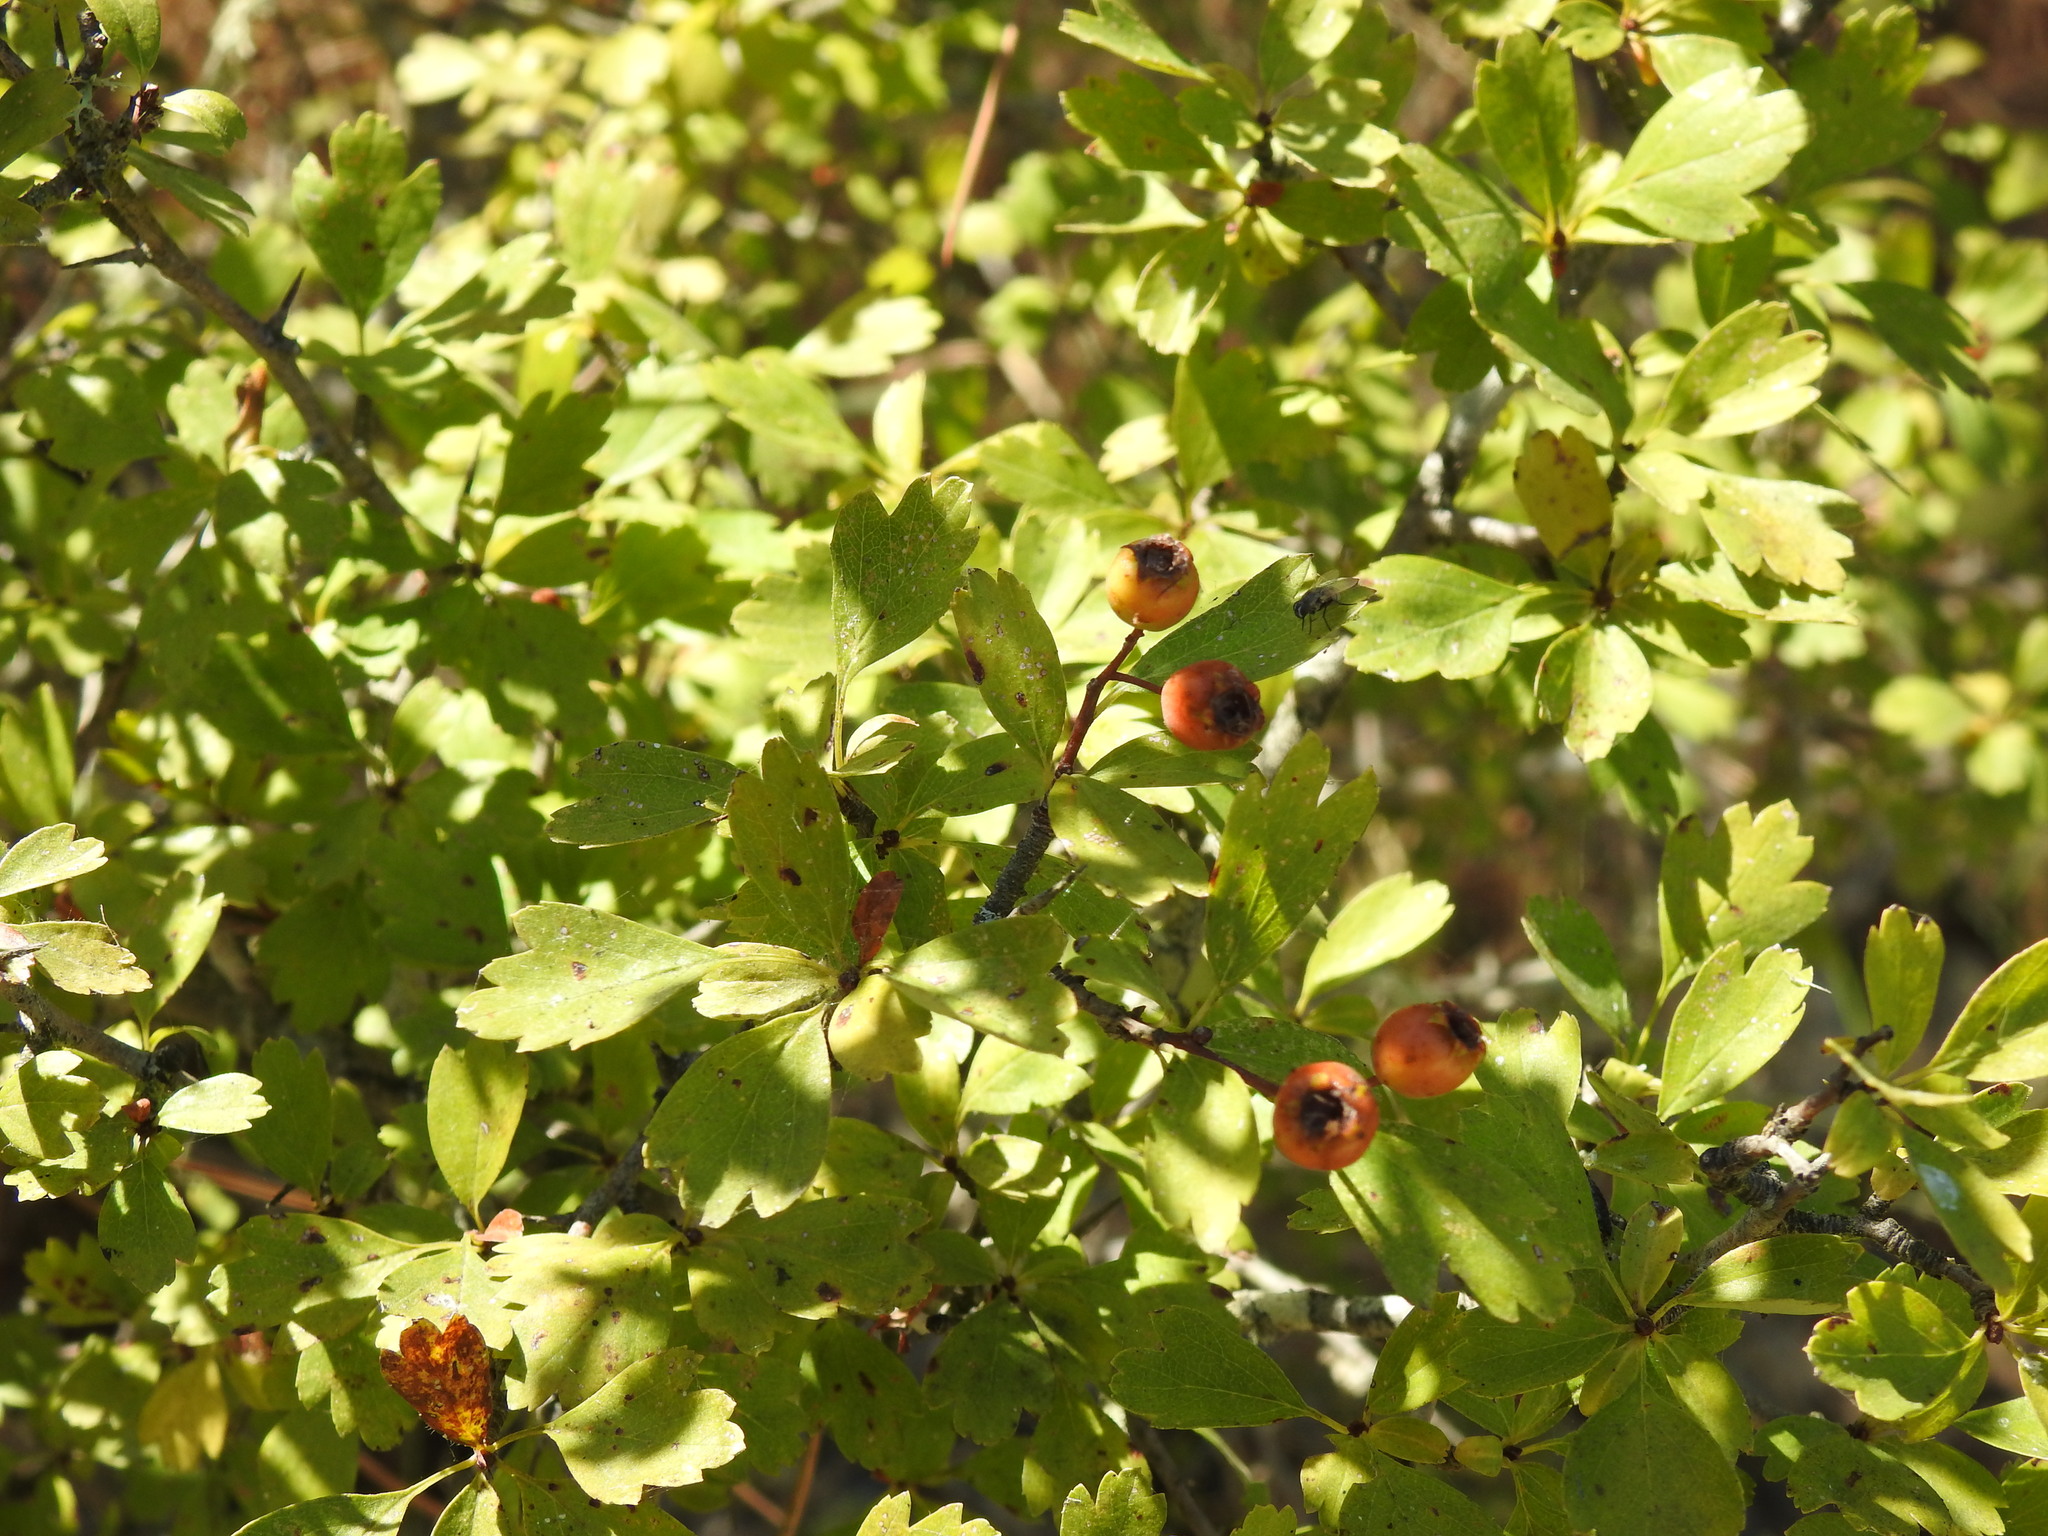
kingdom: Plantae
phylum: Tracheophyta
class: Magnoliopsida
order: Rosales
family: Rosaceae
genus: Crataegus
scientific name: Crataegus monogyna
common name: Hawthorn
